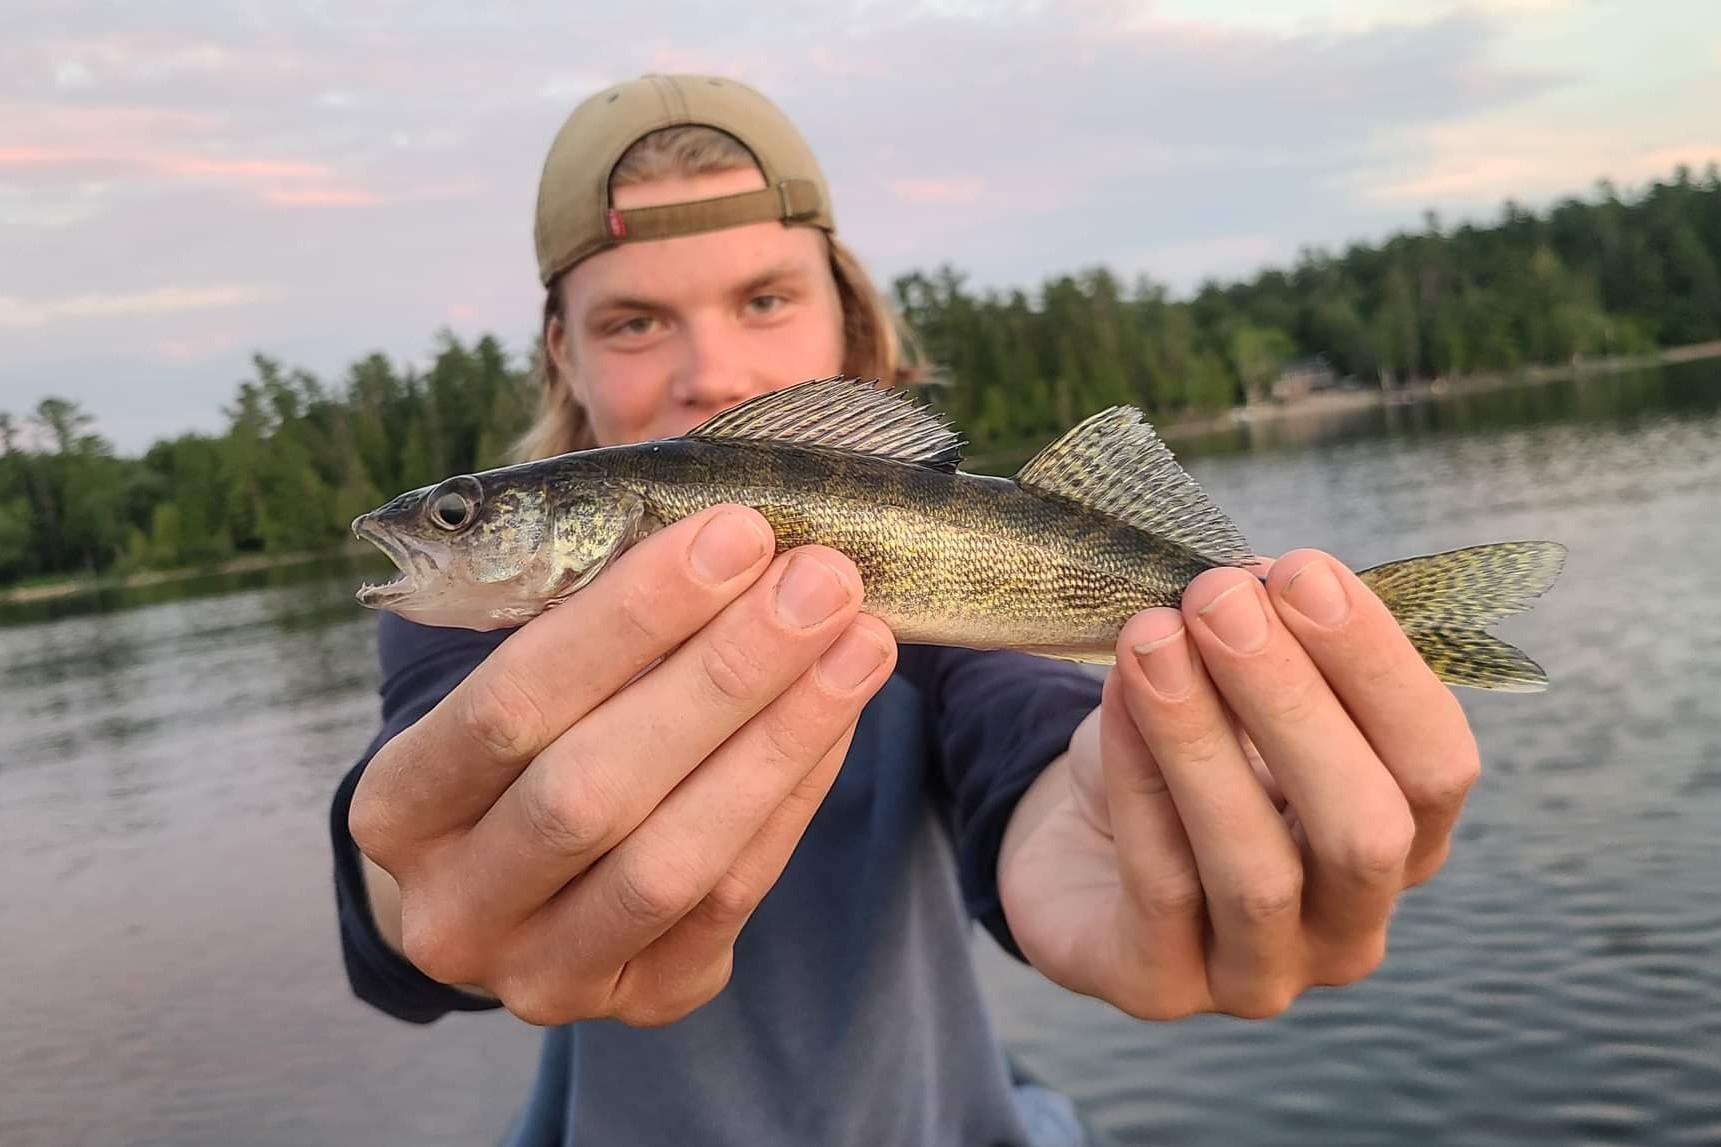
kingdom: Animalia
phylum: Chordata
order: Perciformes
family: Percidae
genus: Sander
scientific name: Sander vitreus
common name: Walleye
